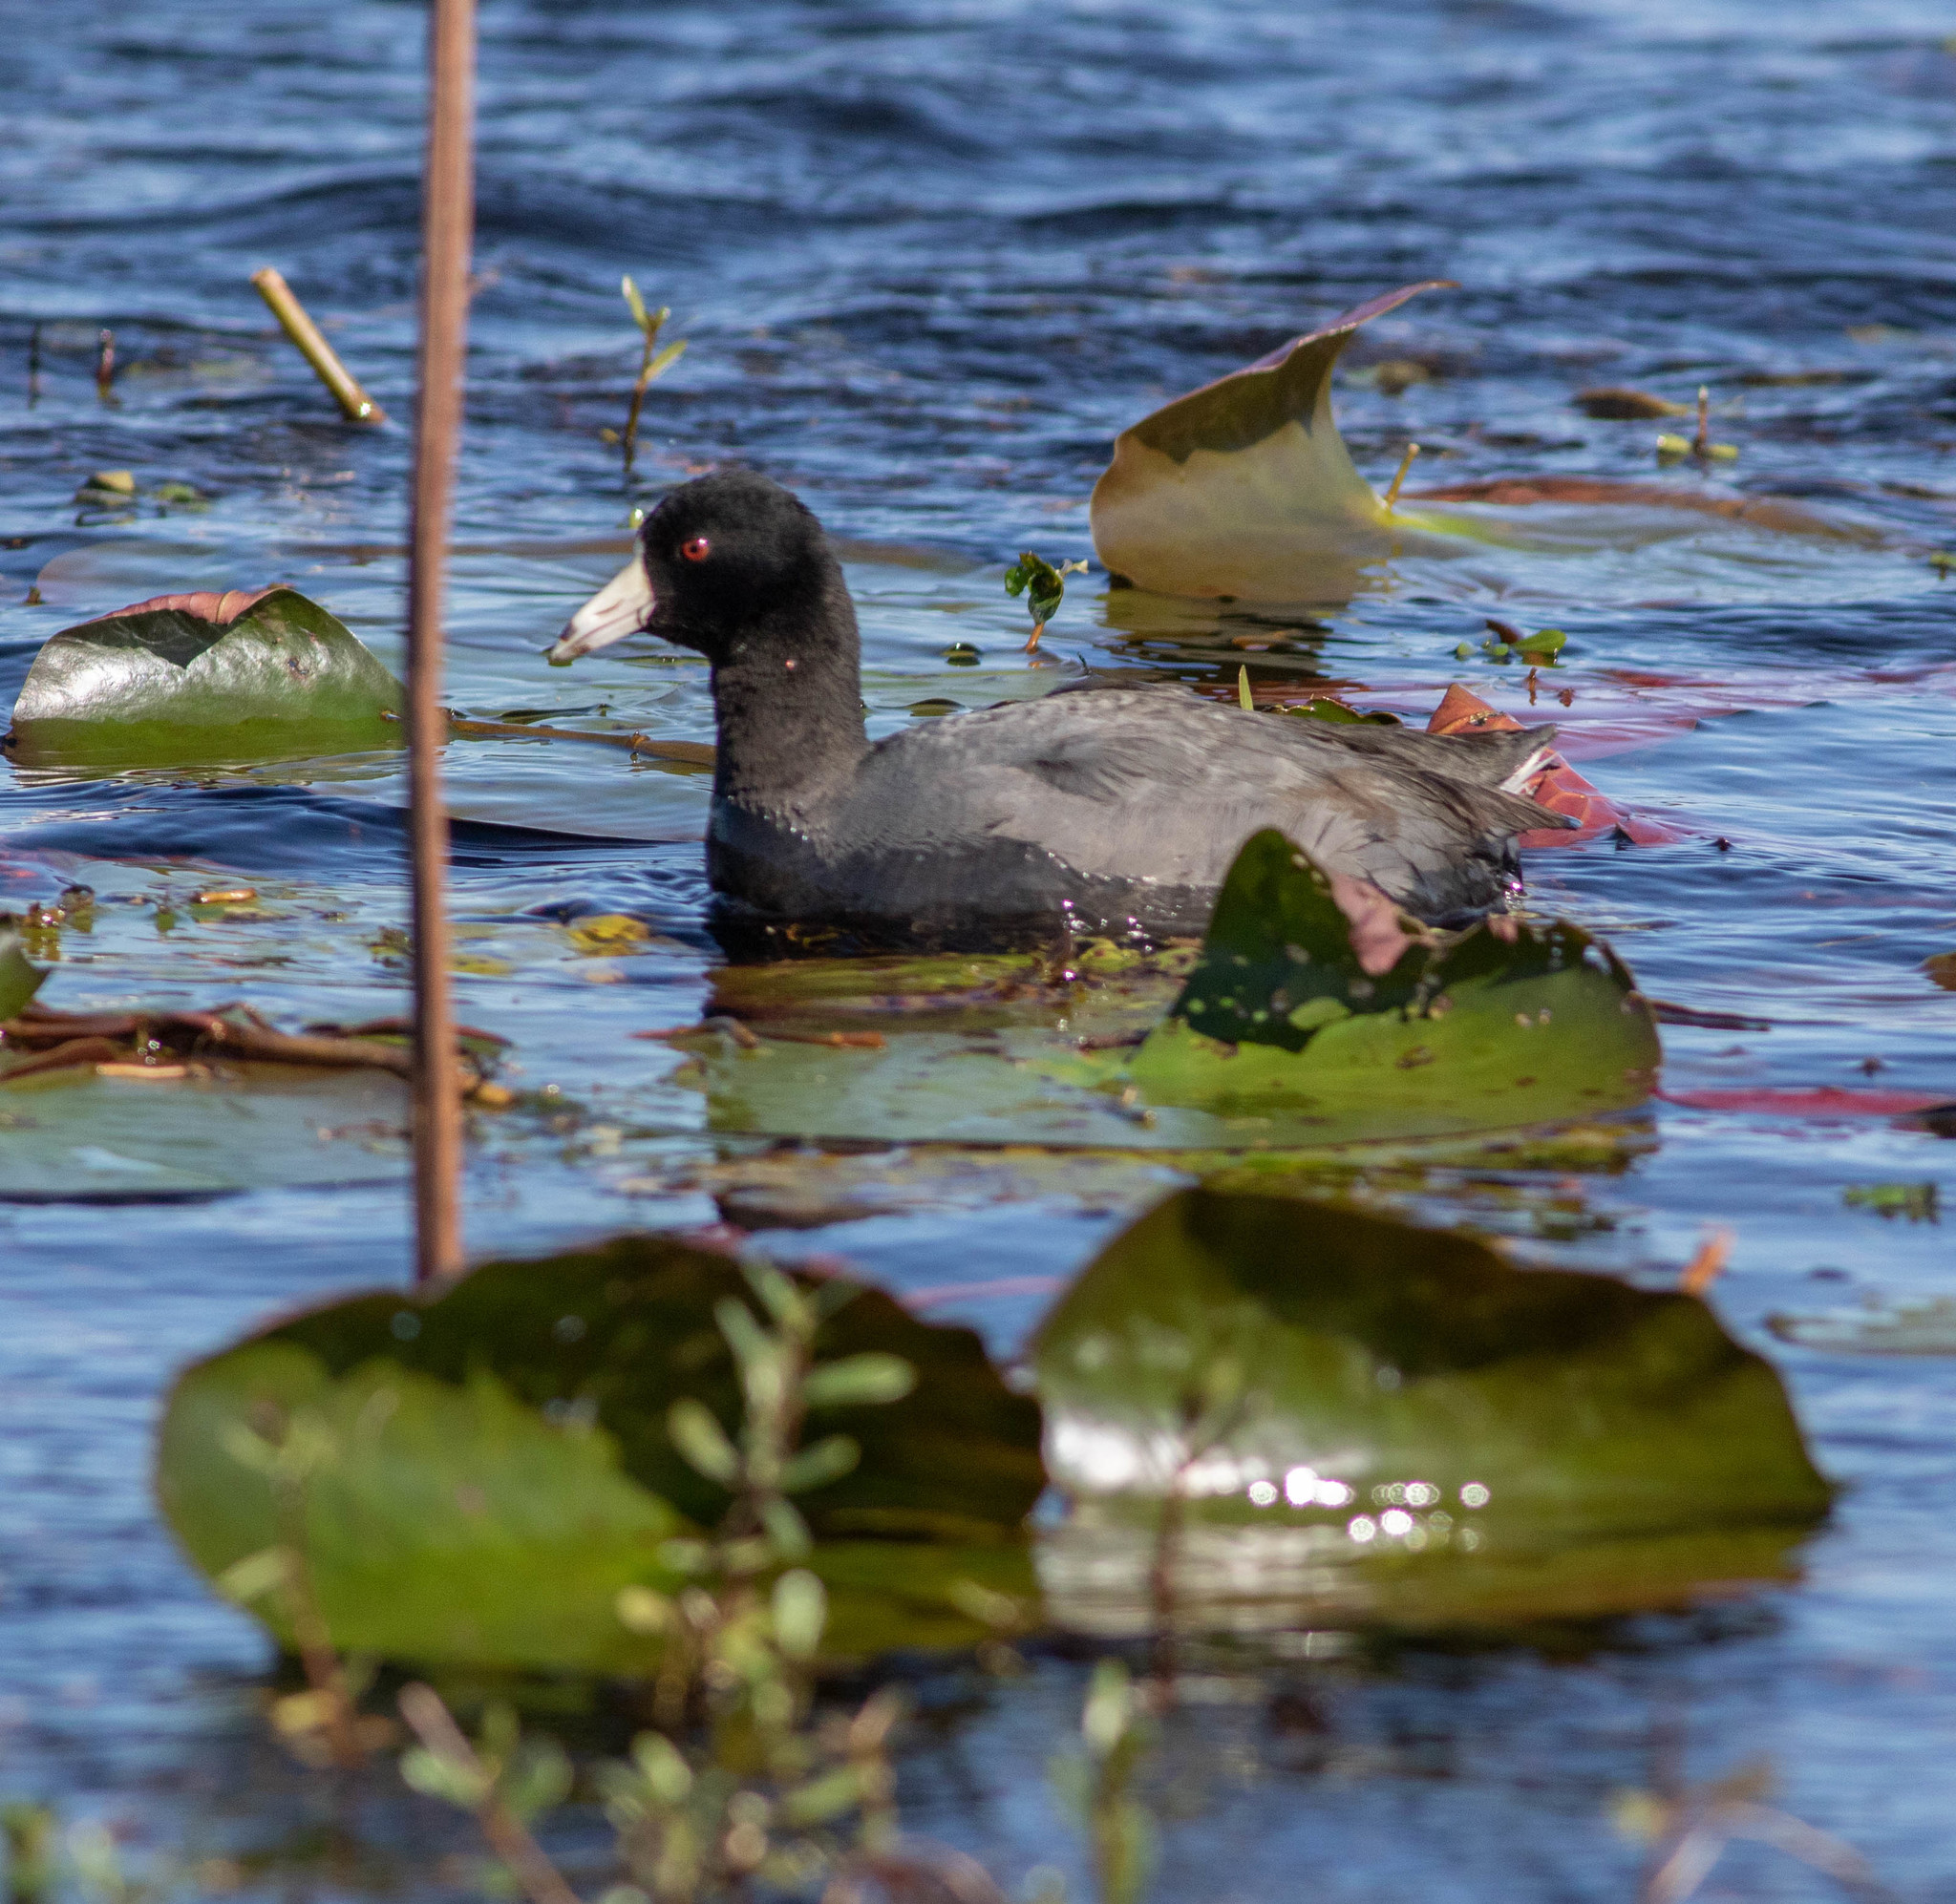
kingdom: Animalia
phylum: Chordata
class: Aves
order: Gruiformes
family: Rallidae
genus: Fulica
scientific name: Fulica americana
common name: American coot
